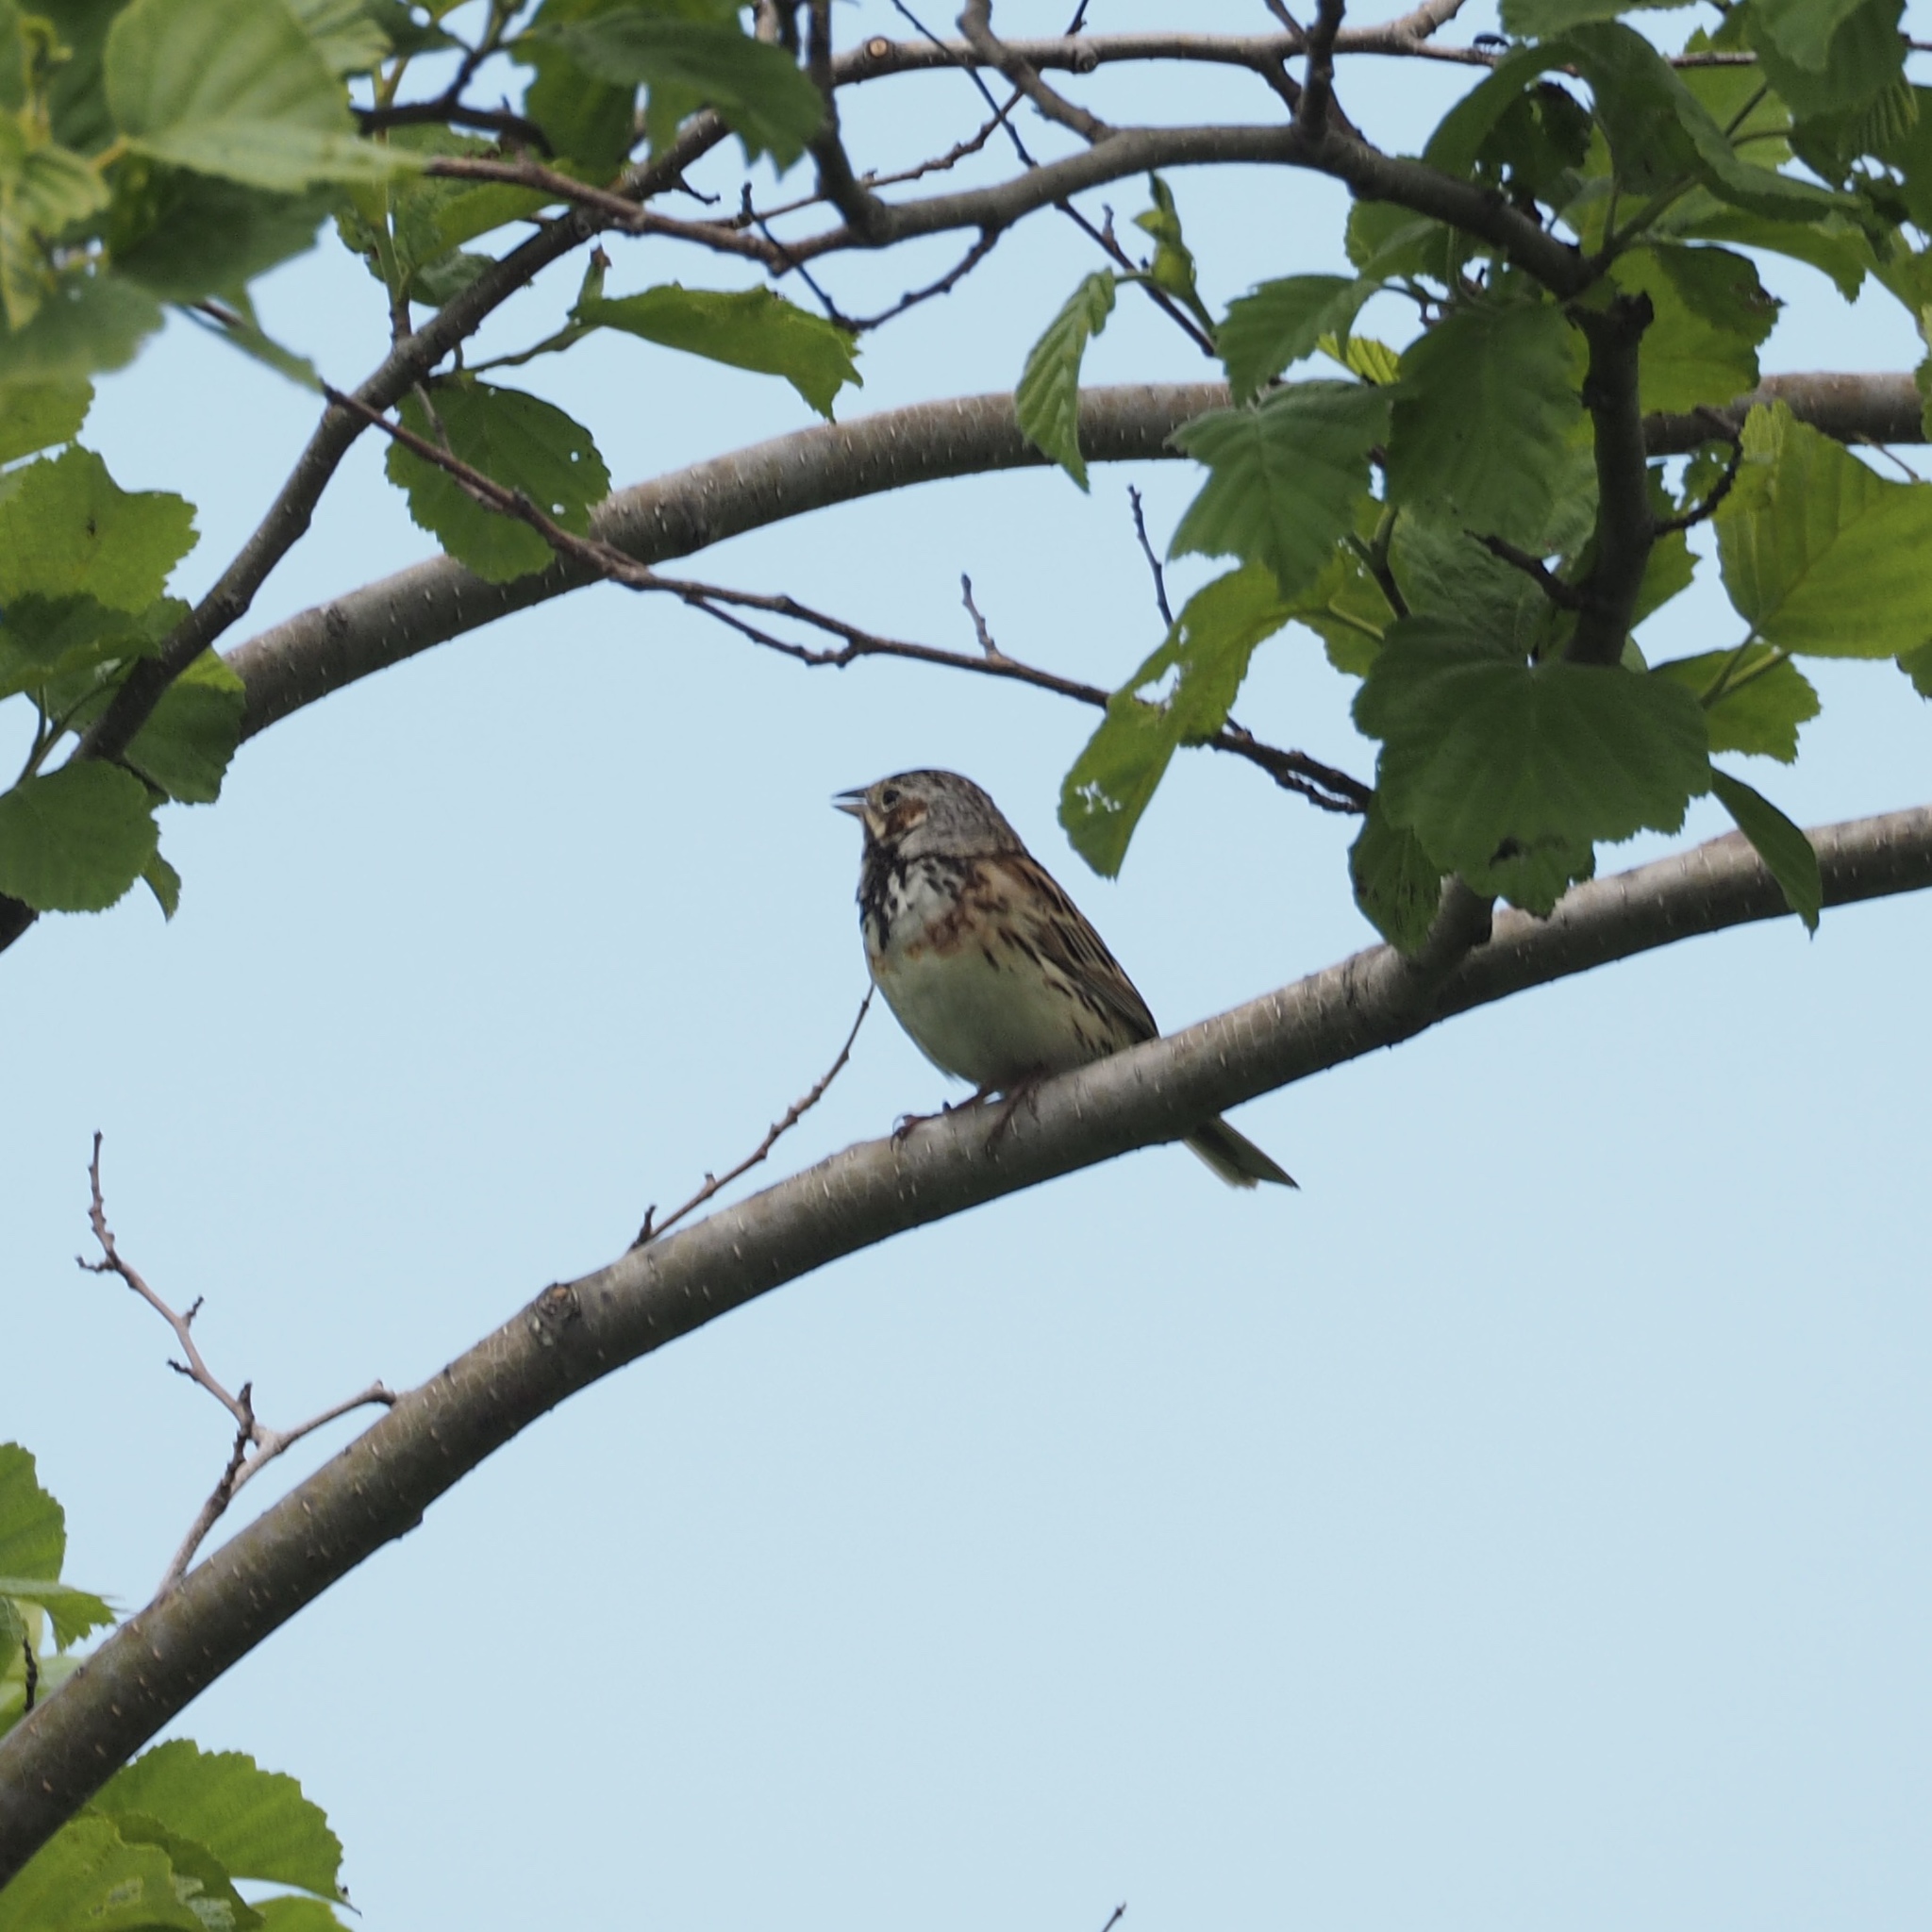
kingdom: Animalia
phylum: Chordata
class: Aves
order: Passeriformes
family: Emberizidae
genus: Emberiza
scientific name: Emberiza fucata
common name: Chestnut-eared bunting
